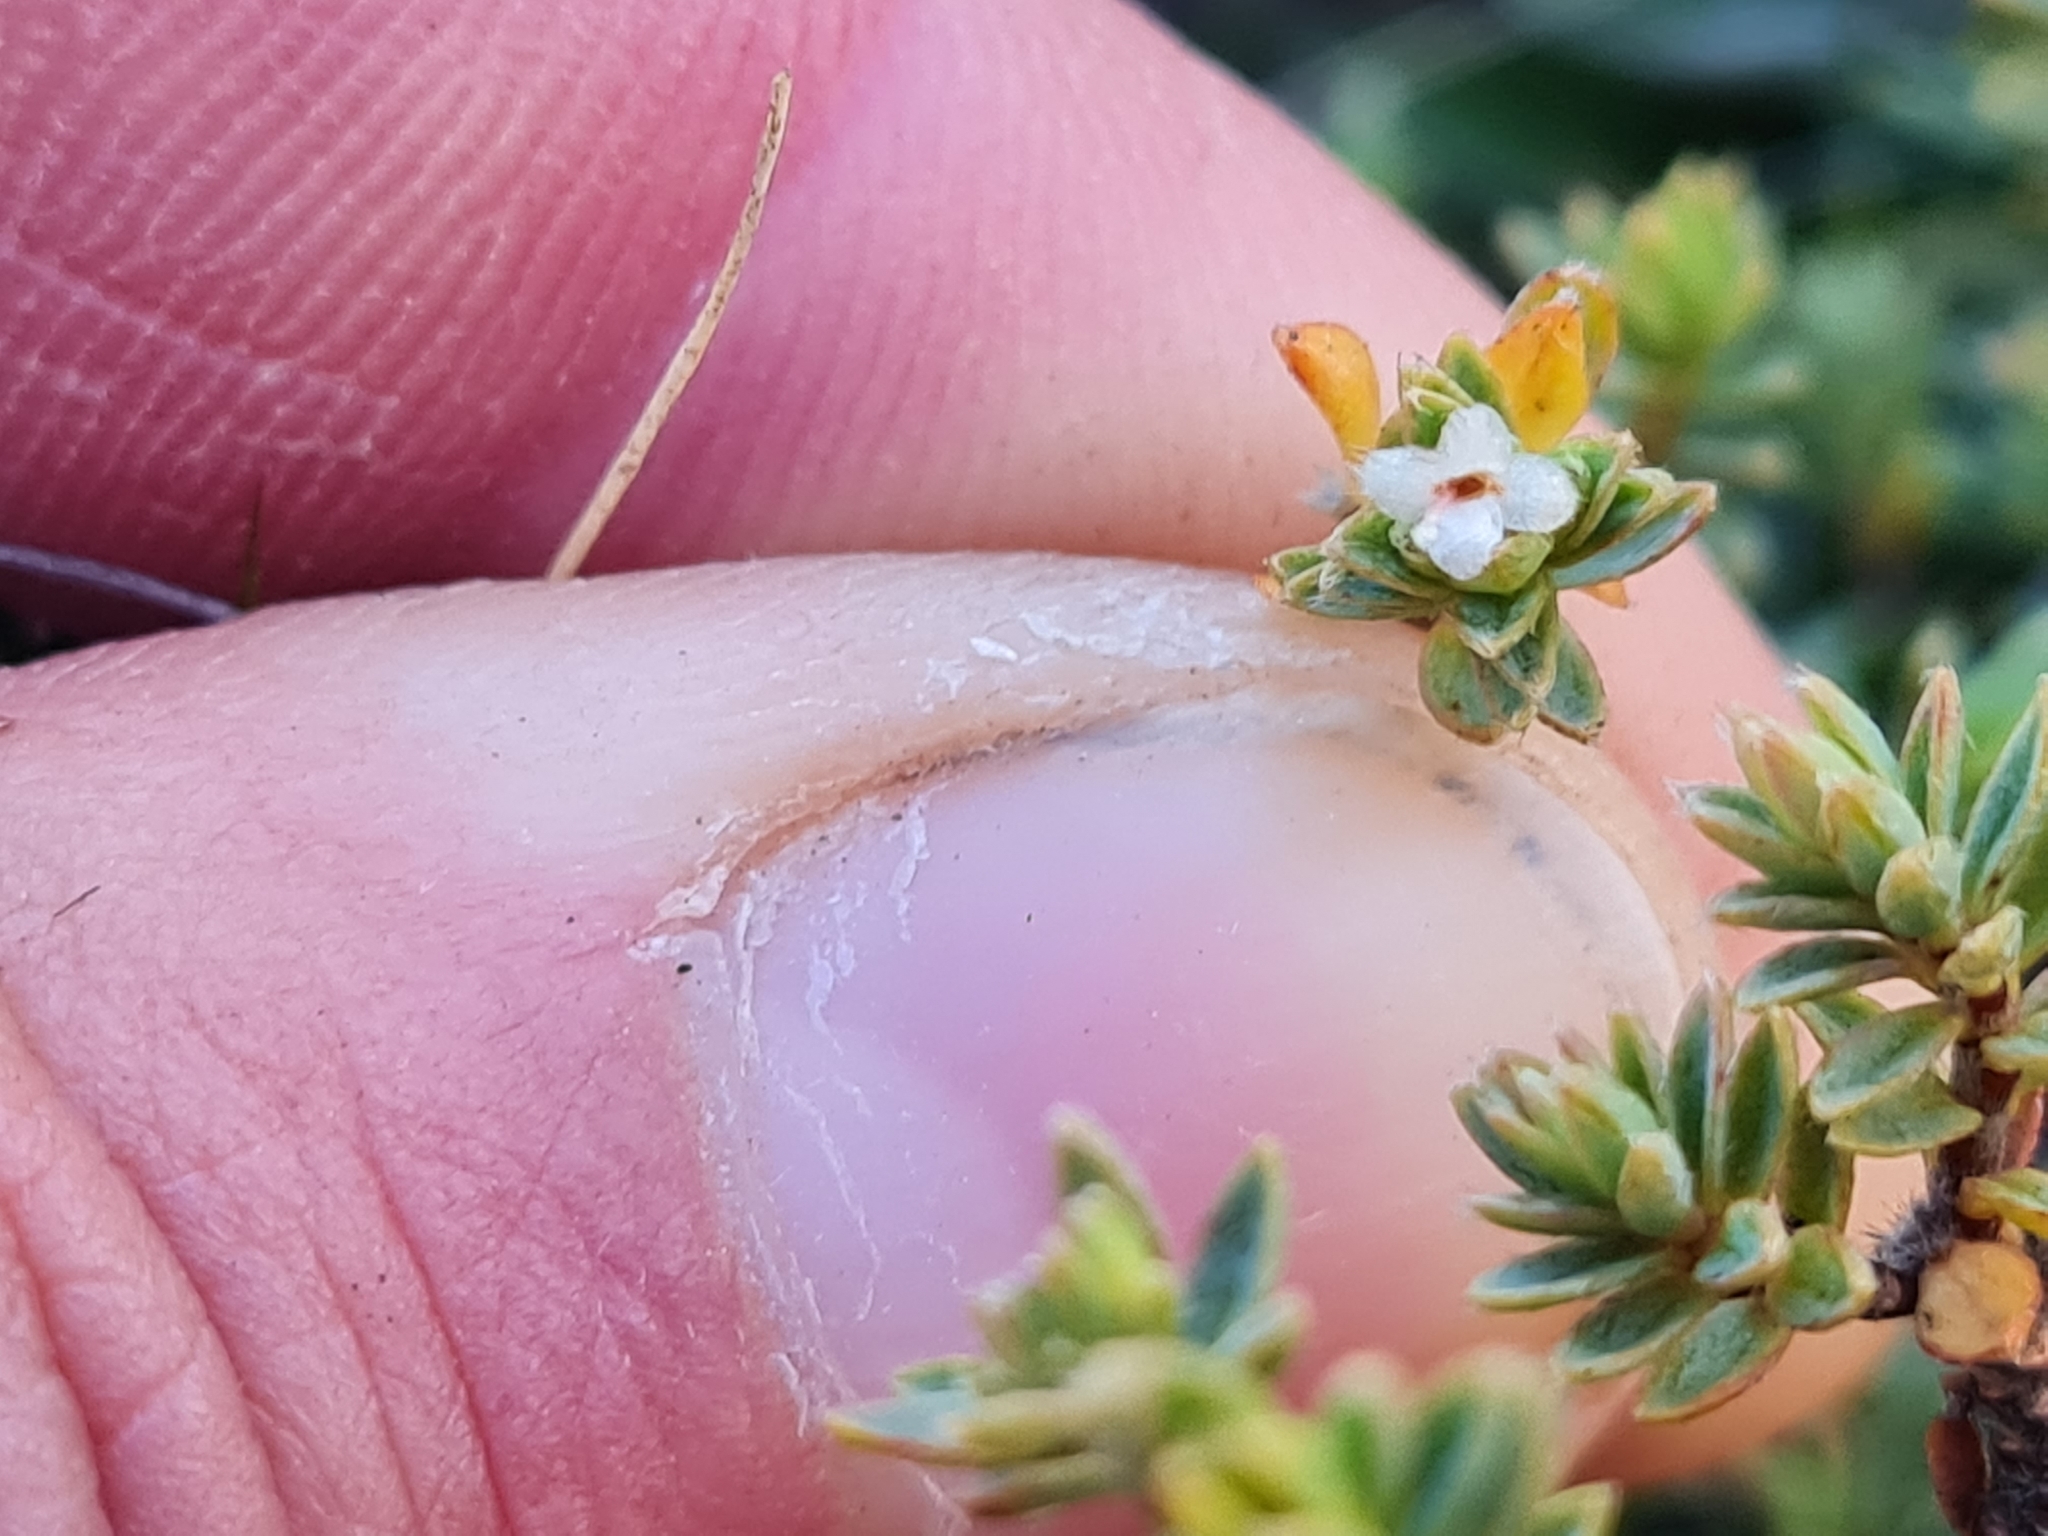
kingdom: Plantae
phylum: Tracheophyta
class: Magnoliopsida
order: Malvales
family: Thymelaeaceae
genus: Pimelea
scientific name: Pimelea oreophila
